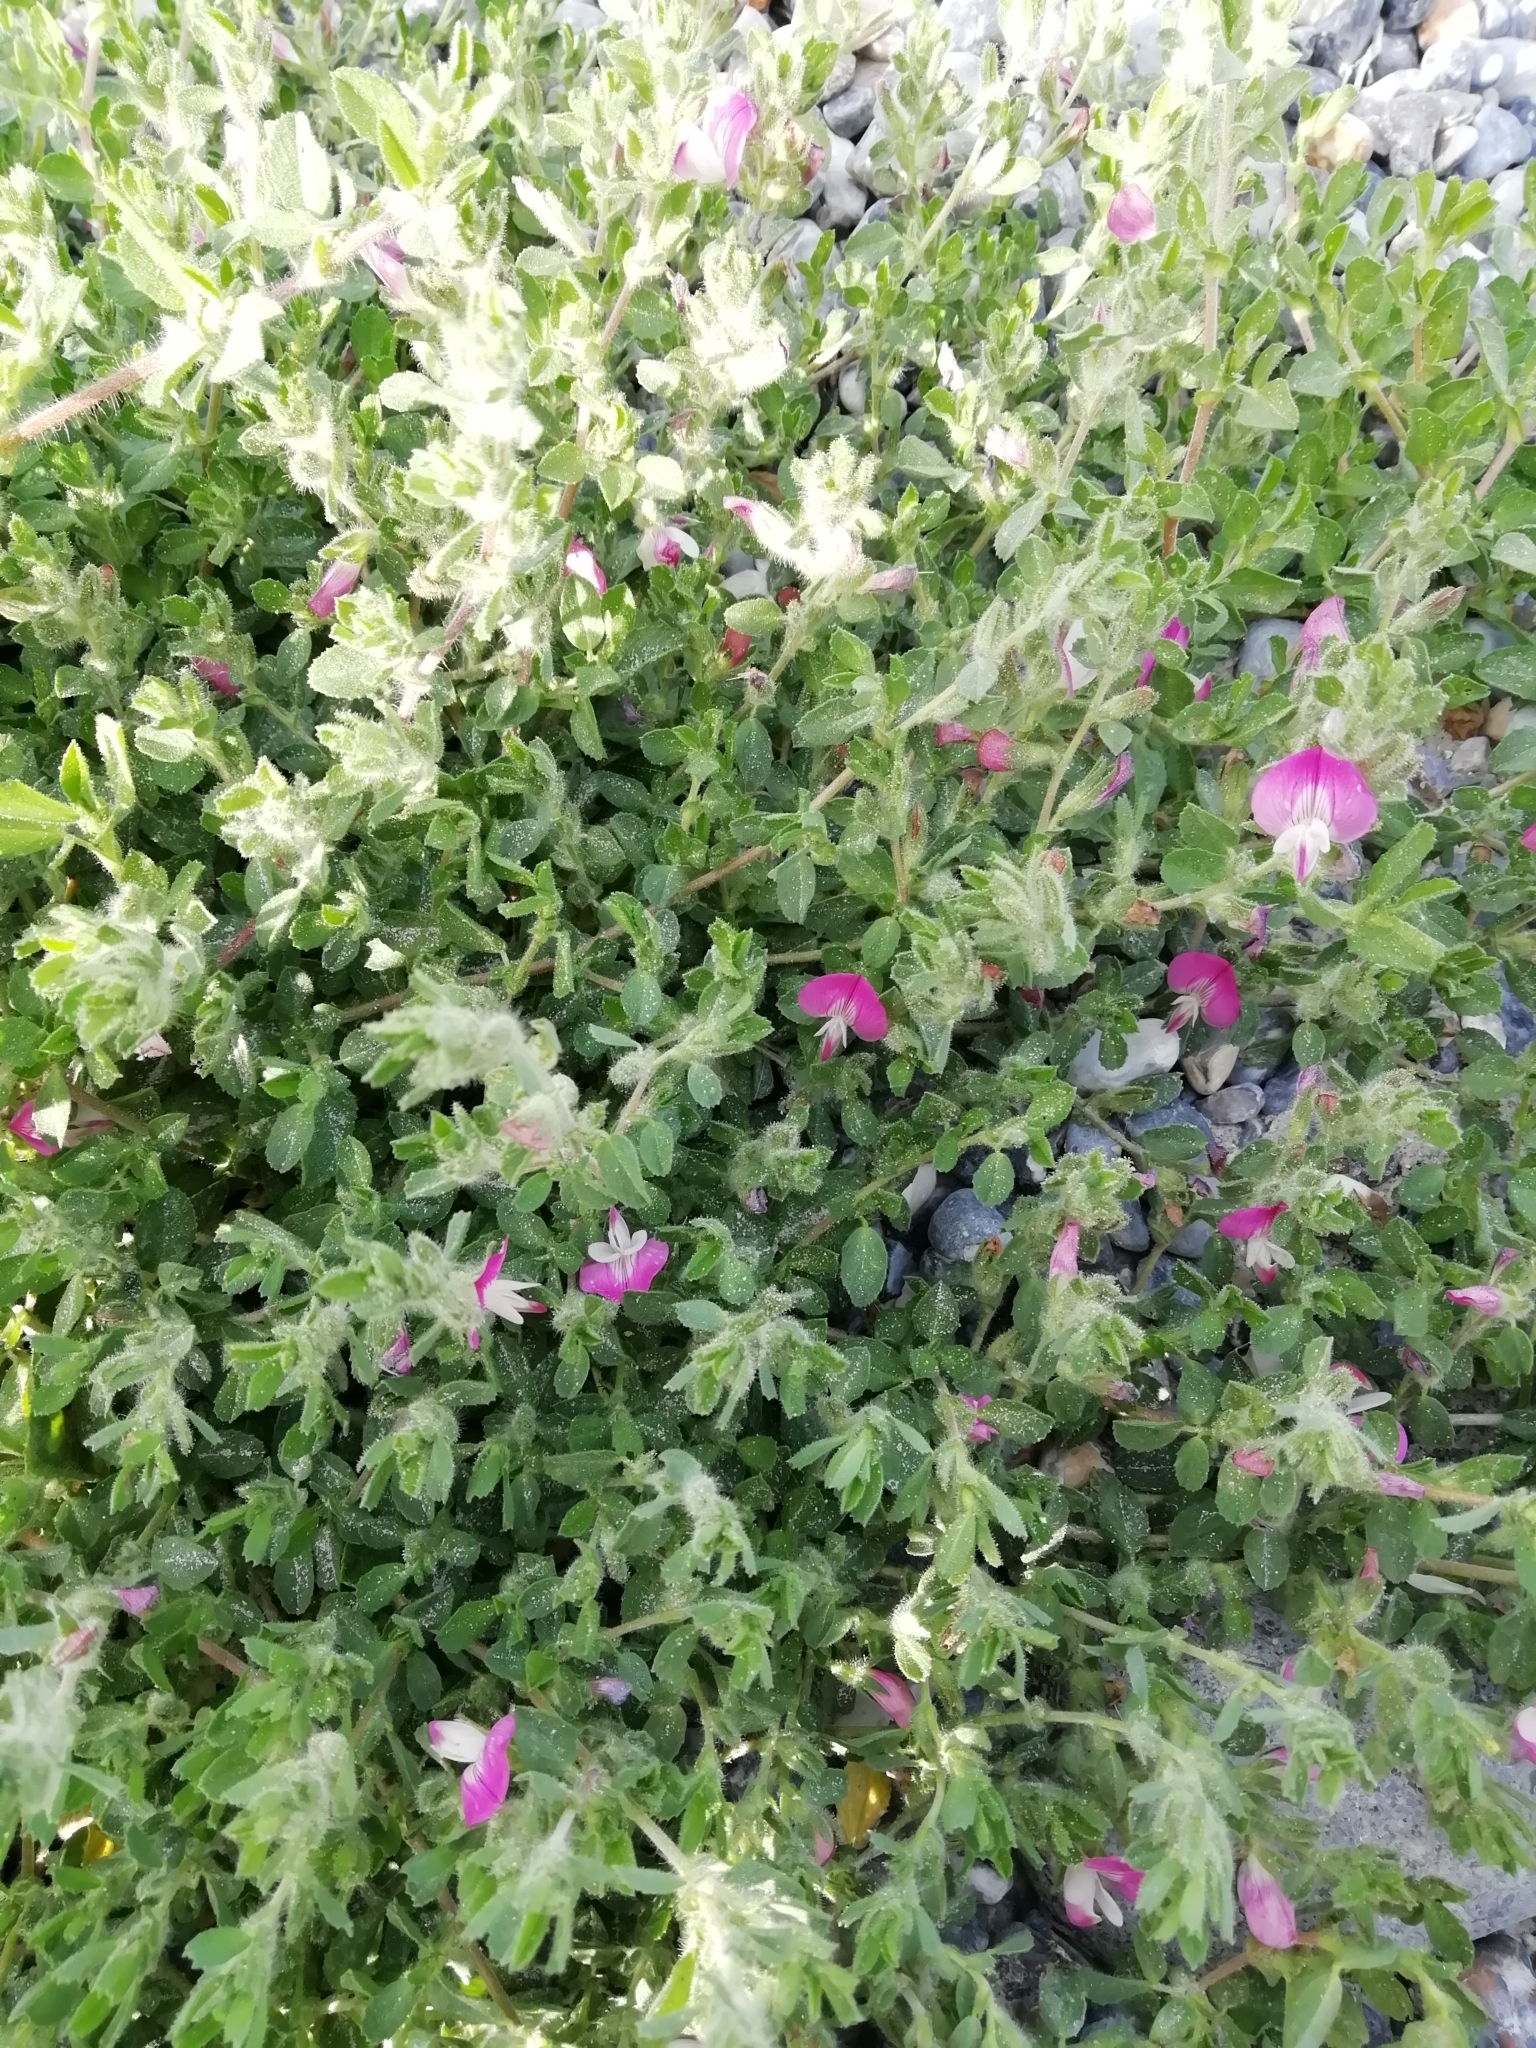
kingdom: Plantae
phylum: Tracheophyta
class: Magnoliopsida
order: Fabales
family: Fabaceae
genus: Ononis
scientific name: Ononis spinosa
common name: Spiny restharrow
